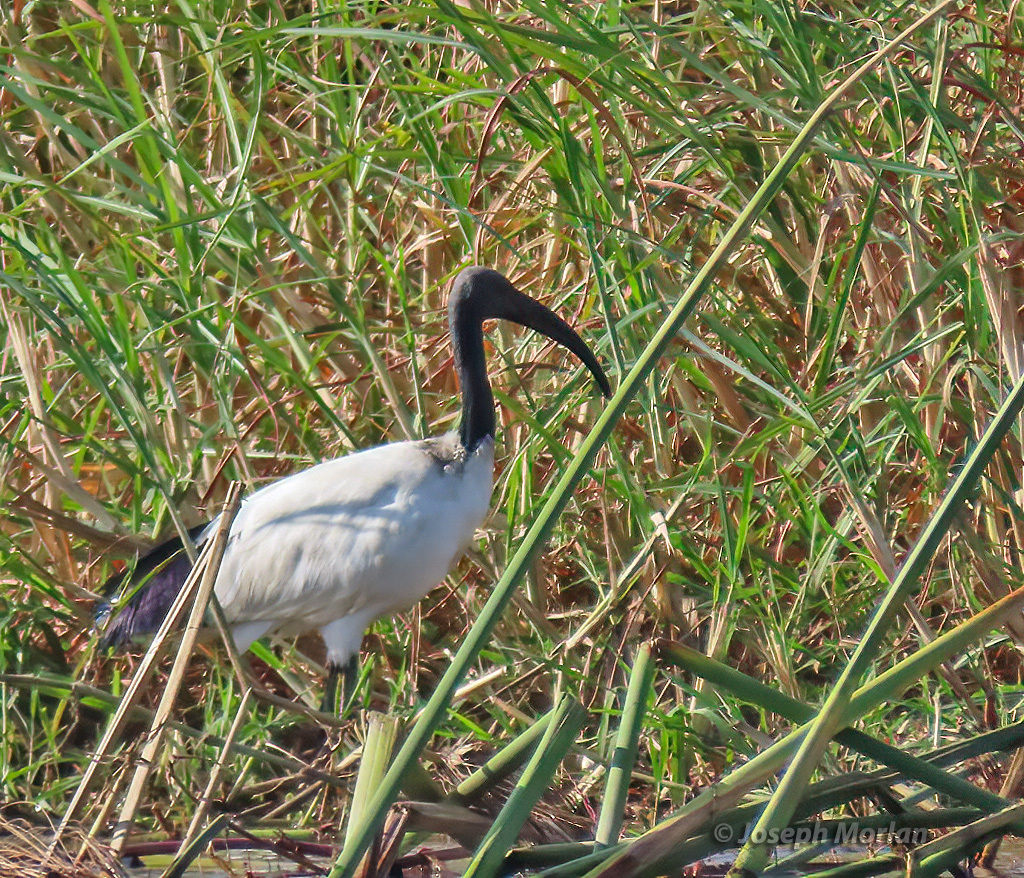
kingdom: Animalia
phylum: Chordata
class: Aves
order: Pelecaniformes
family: Threskiornithidae
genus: Threskiornis
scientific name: Threskiornis aethiopicus
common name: Sacred ibis
